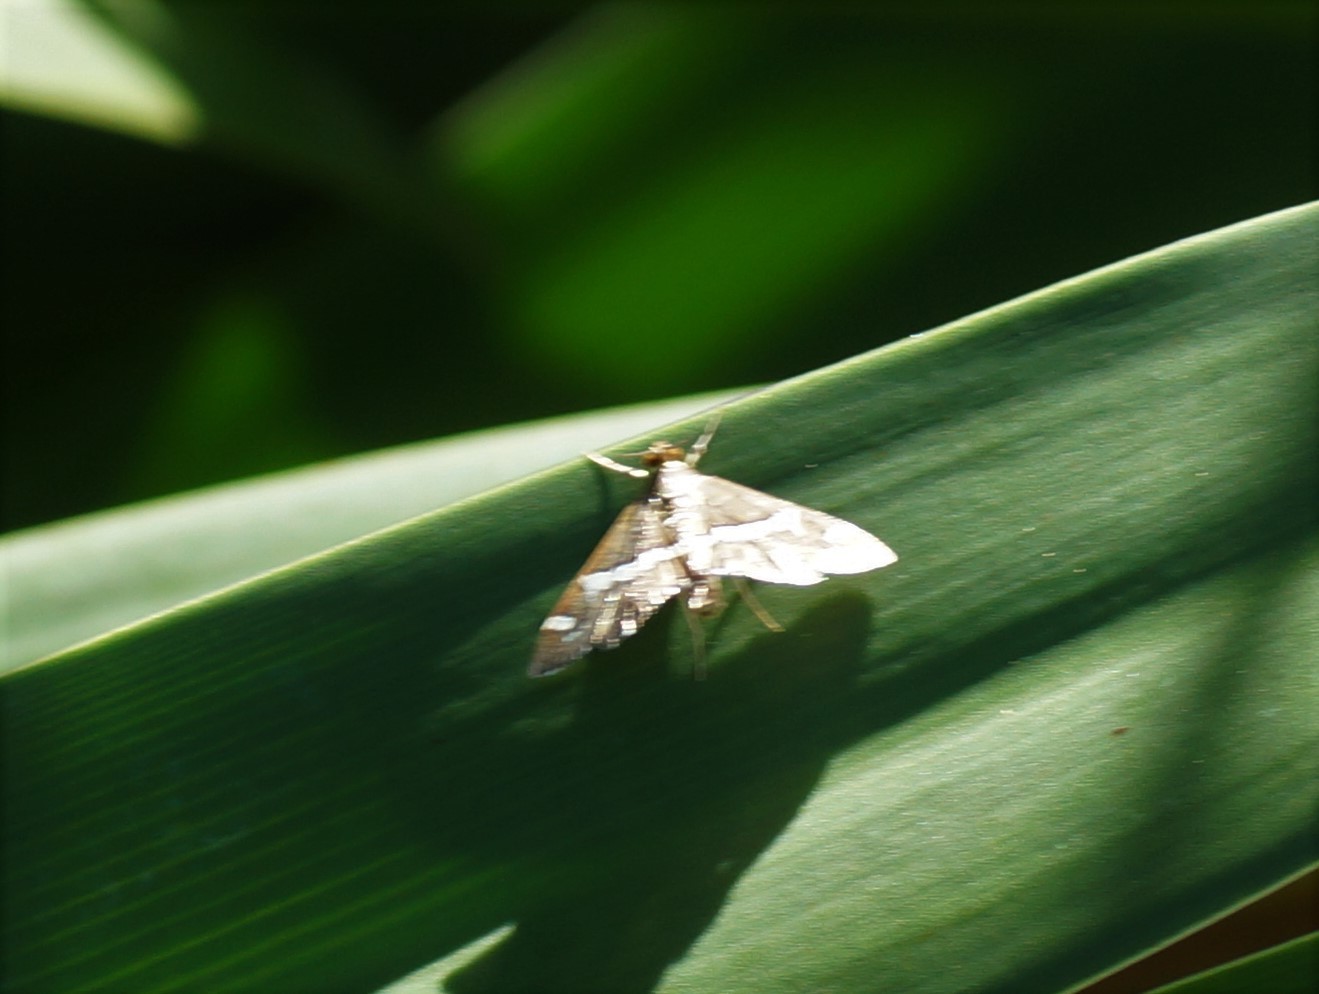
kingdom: Animalia
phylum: Arthropoda
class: Insecta
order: Lepidoptera
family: Crambidae
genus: Spoladea
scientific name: Spoladea recurvalis
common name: Beet webworm moth
